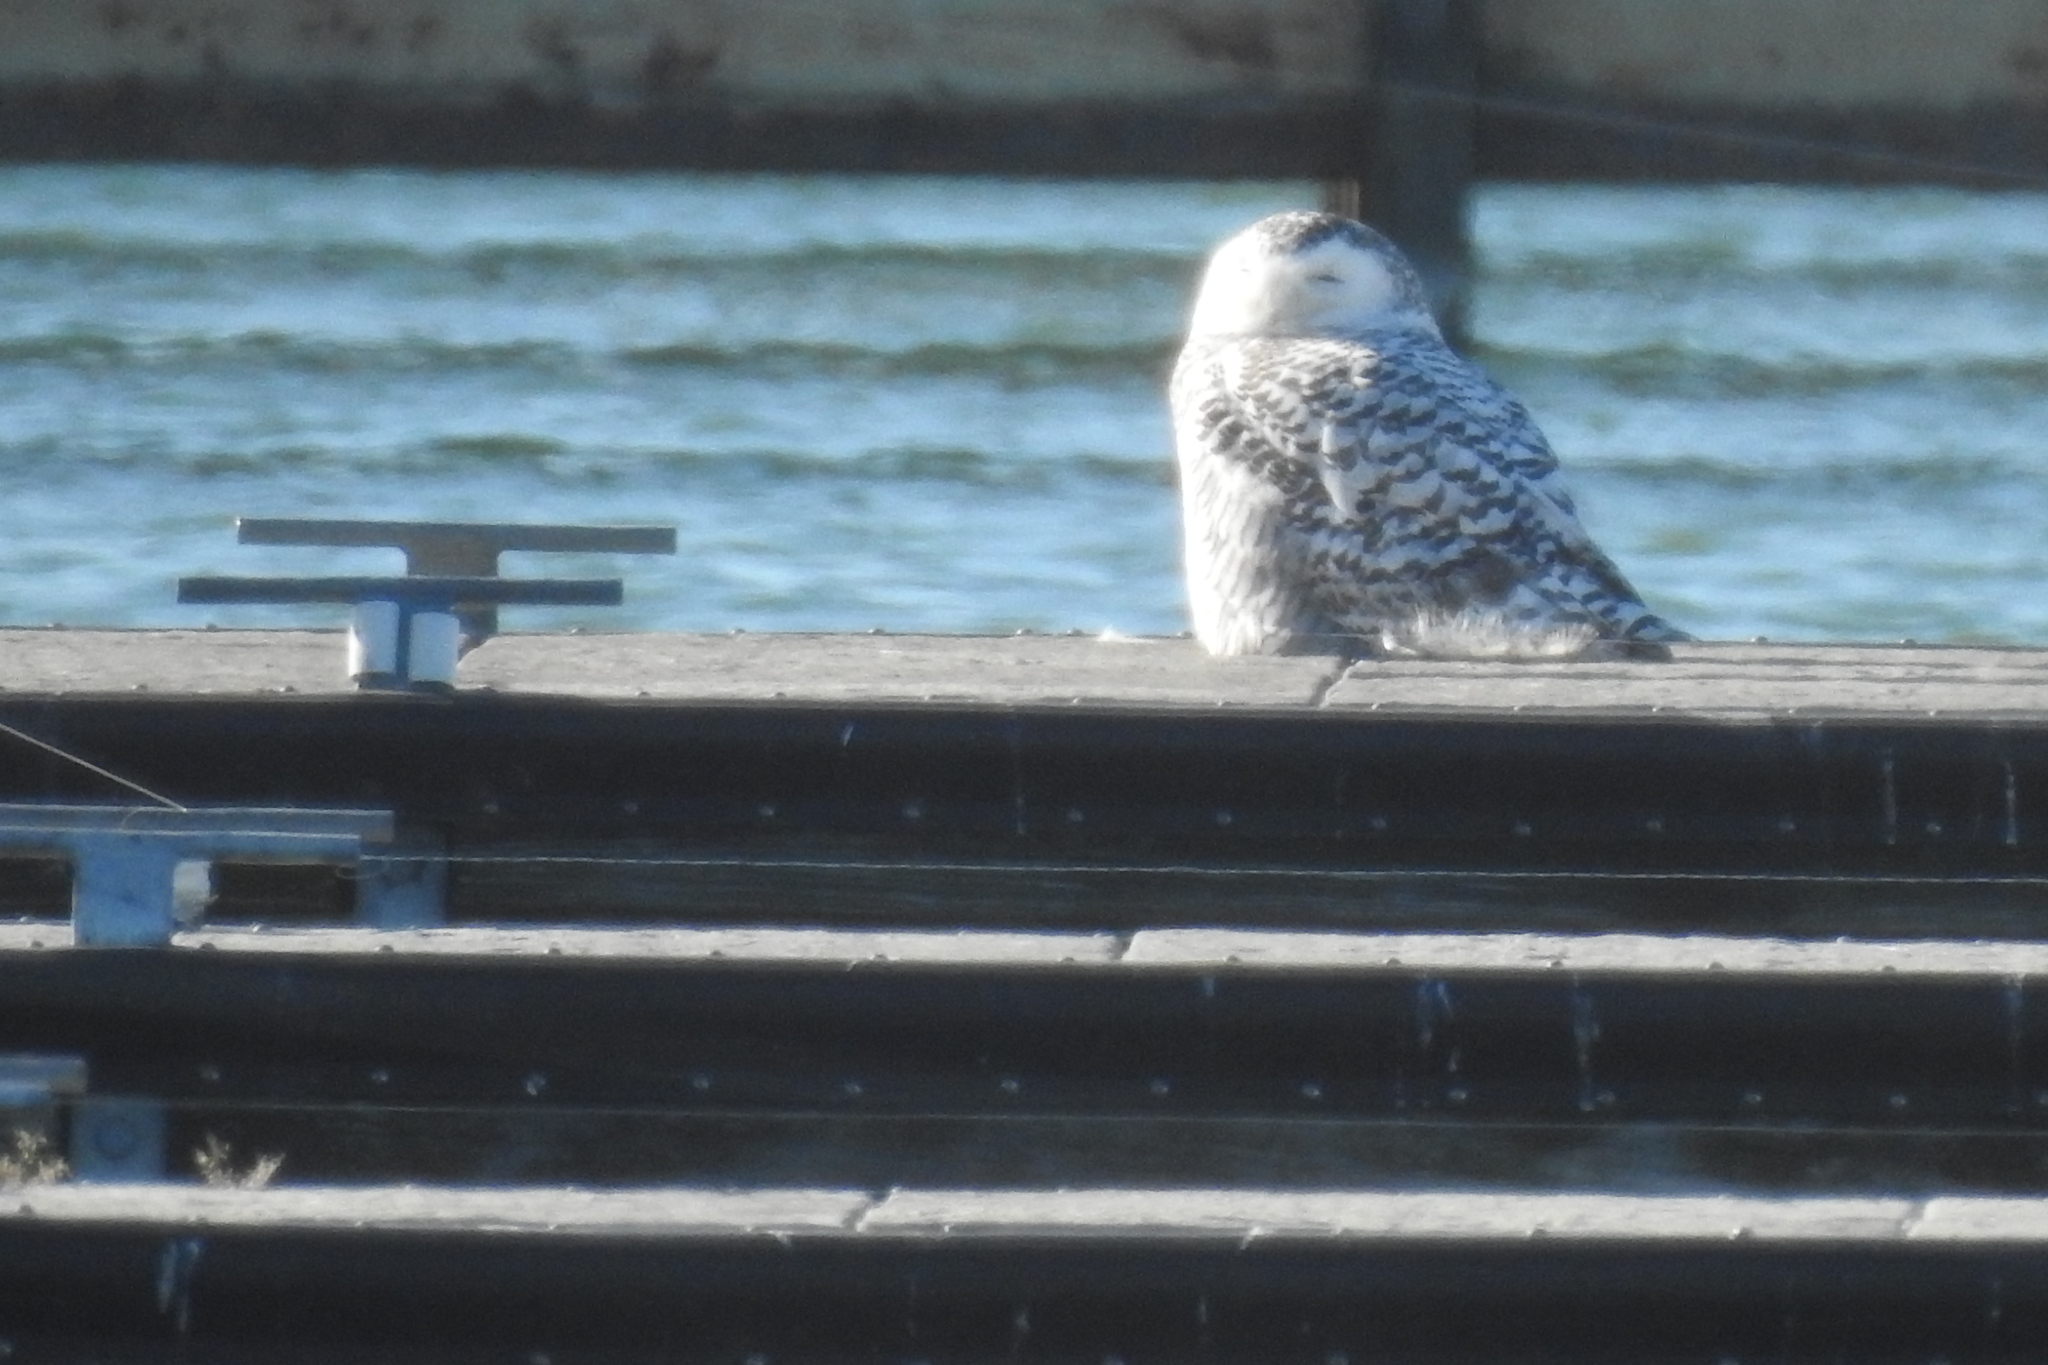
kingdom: Animalia
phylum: Chordata
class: Aves
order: Strigiformes
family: Strigidae
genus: Bubo
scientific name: Bubo scandiacus
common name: Snowy owl
